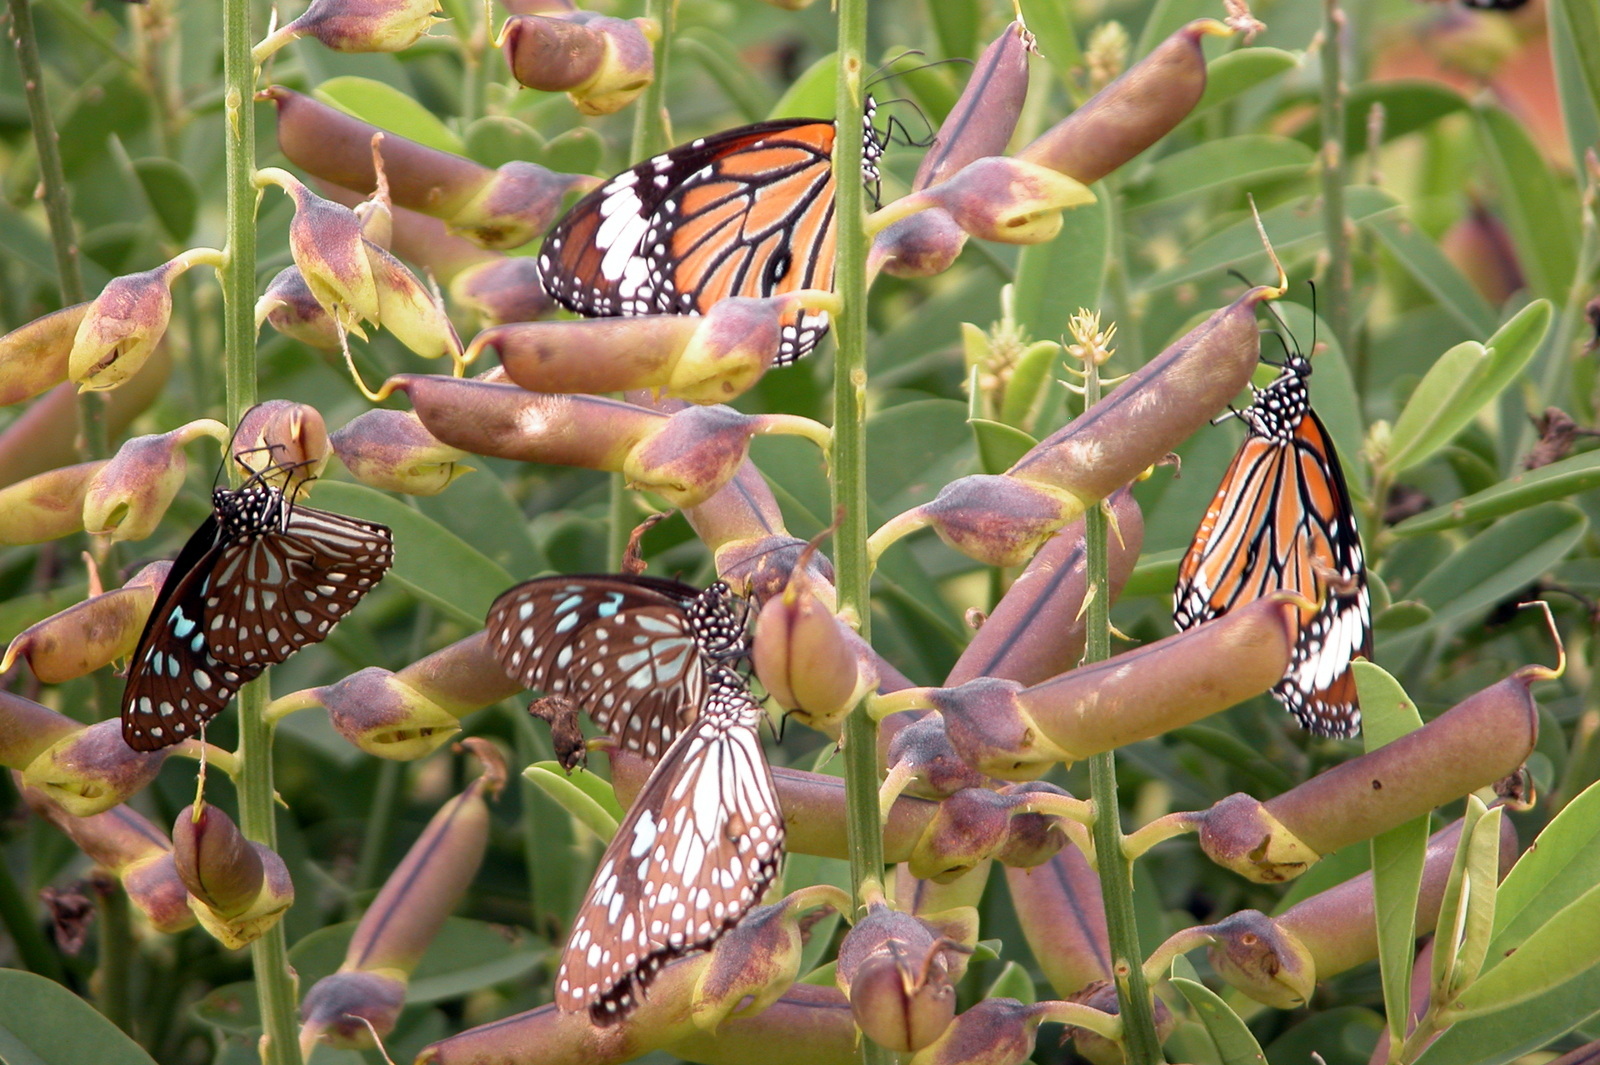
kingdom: Animalia
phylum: Arthropoda
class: Insecta
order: Lepidoptera
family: Nymphalidae
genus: Tirumala
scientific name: Tirumala septentrionis
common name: Dark blue tiger butterfly
